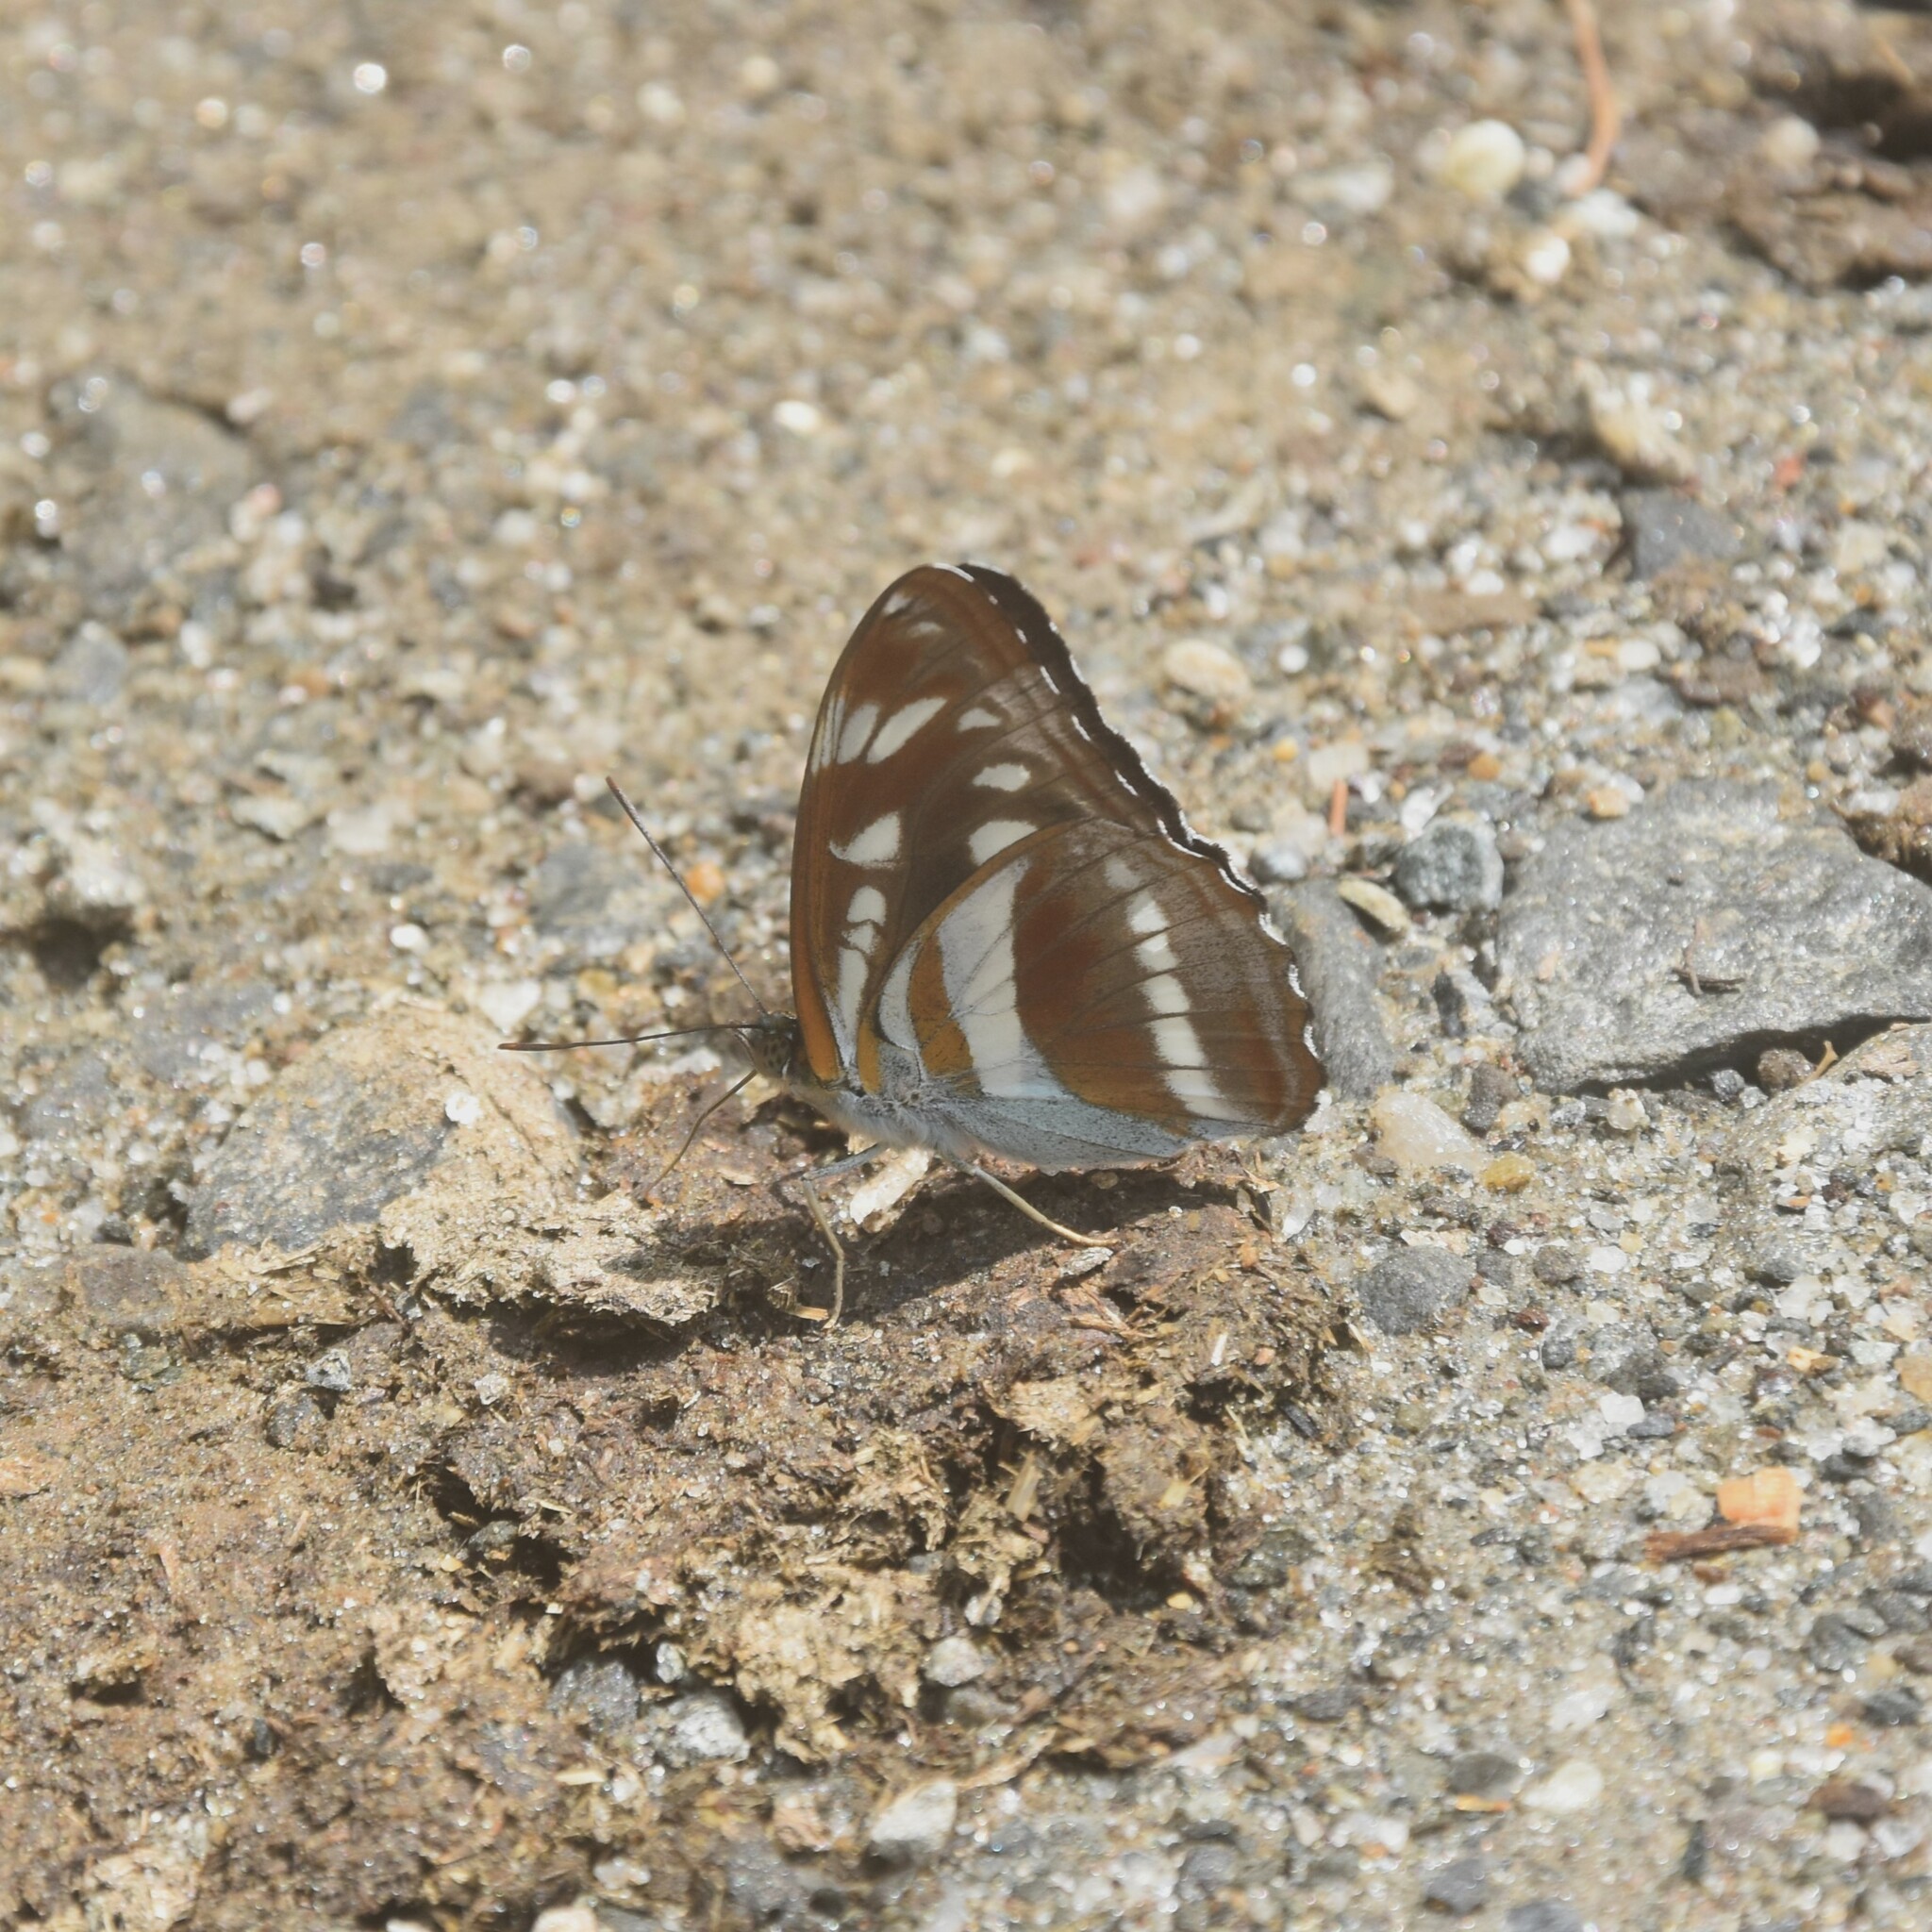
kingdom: Animalia
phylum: Arthropoda
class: Insecta
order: Lepidoptera
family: Nymphalidae
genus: Parathyma
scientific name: Parathyma opalina
